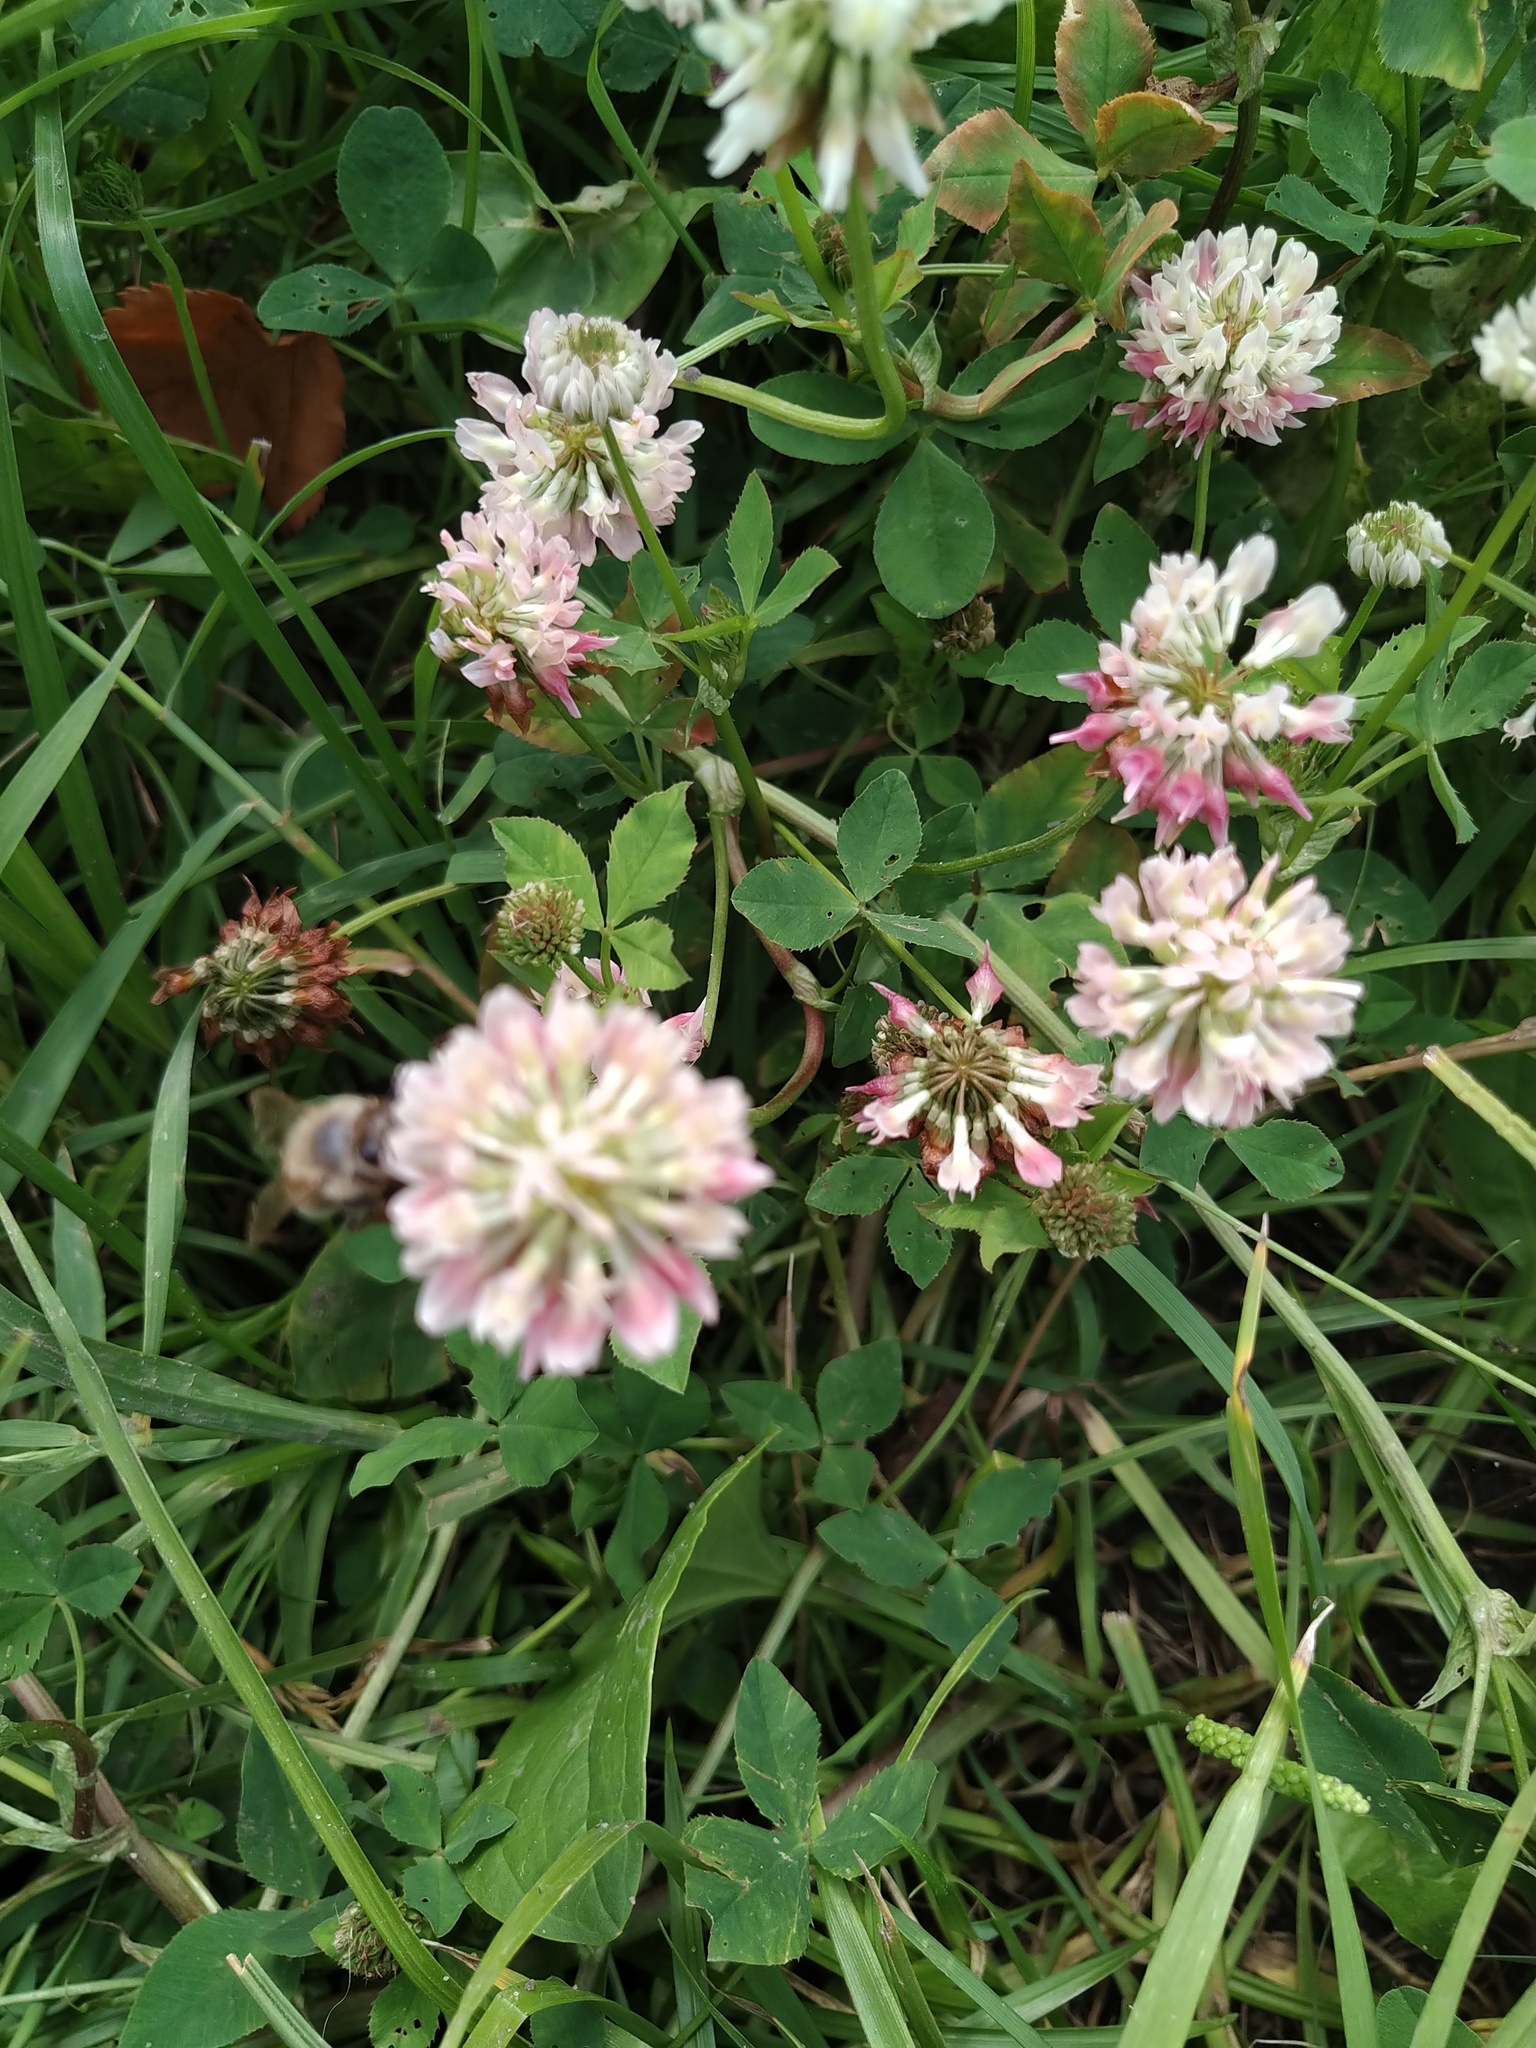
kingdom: Plantae
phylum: Tracheophyta
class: Magnoliopsida
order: Fabales
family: Fabaceae
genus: Trifolium
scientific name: Trifolium hybridum
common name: Alsike clover
